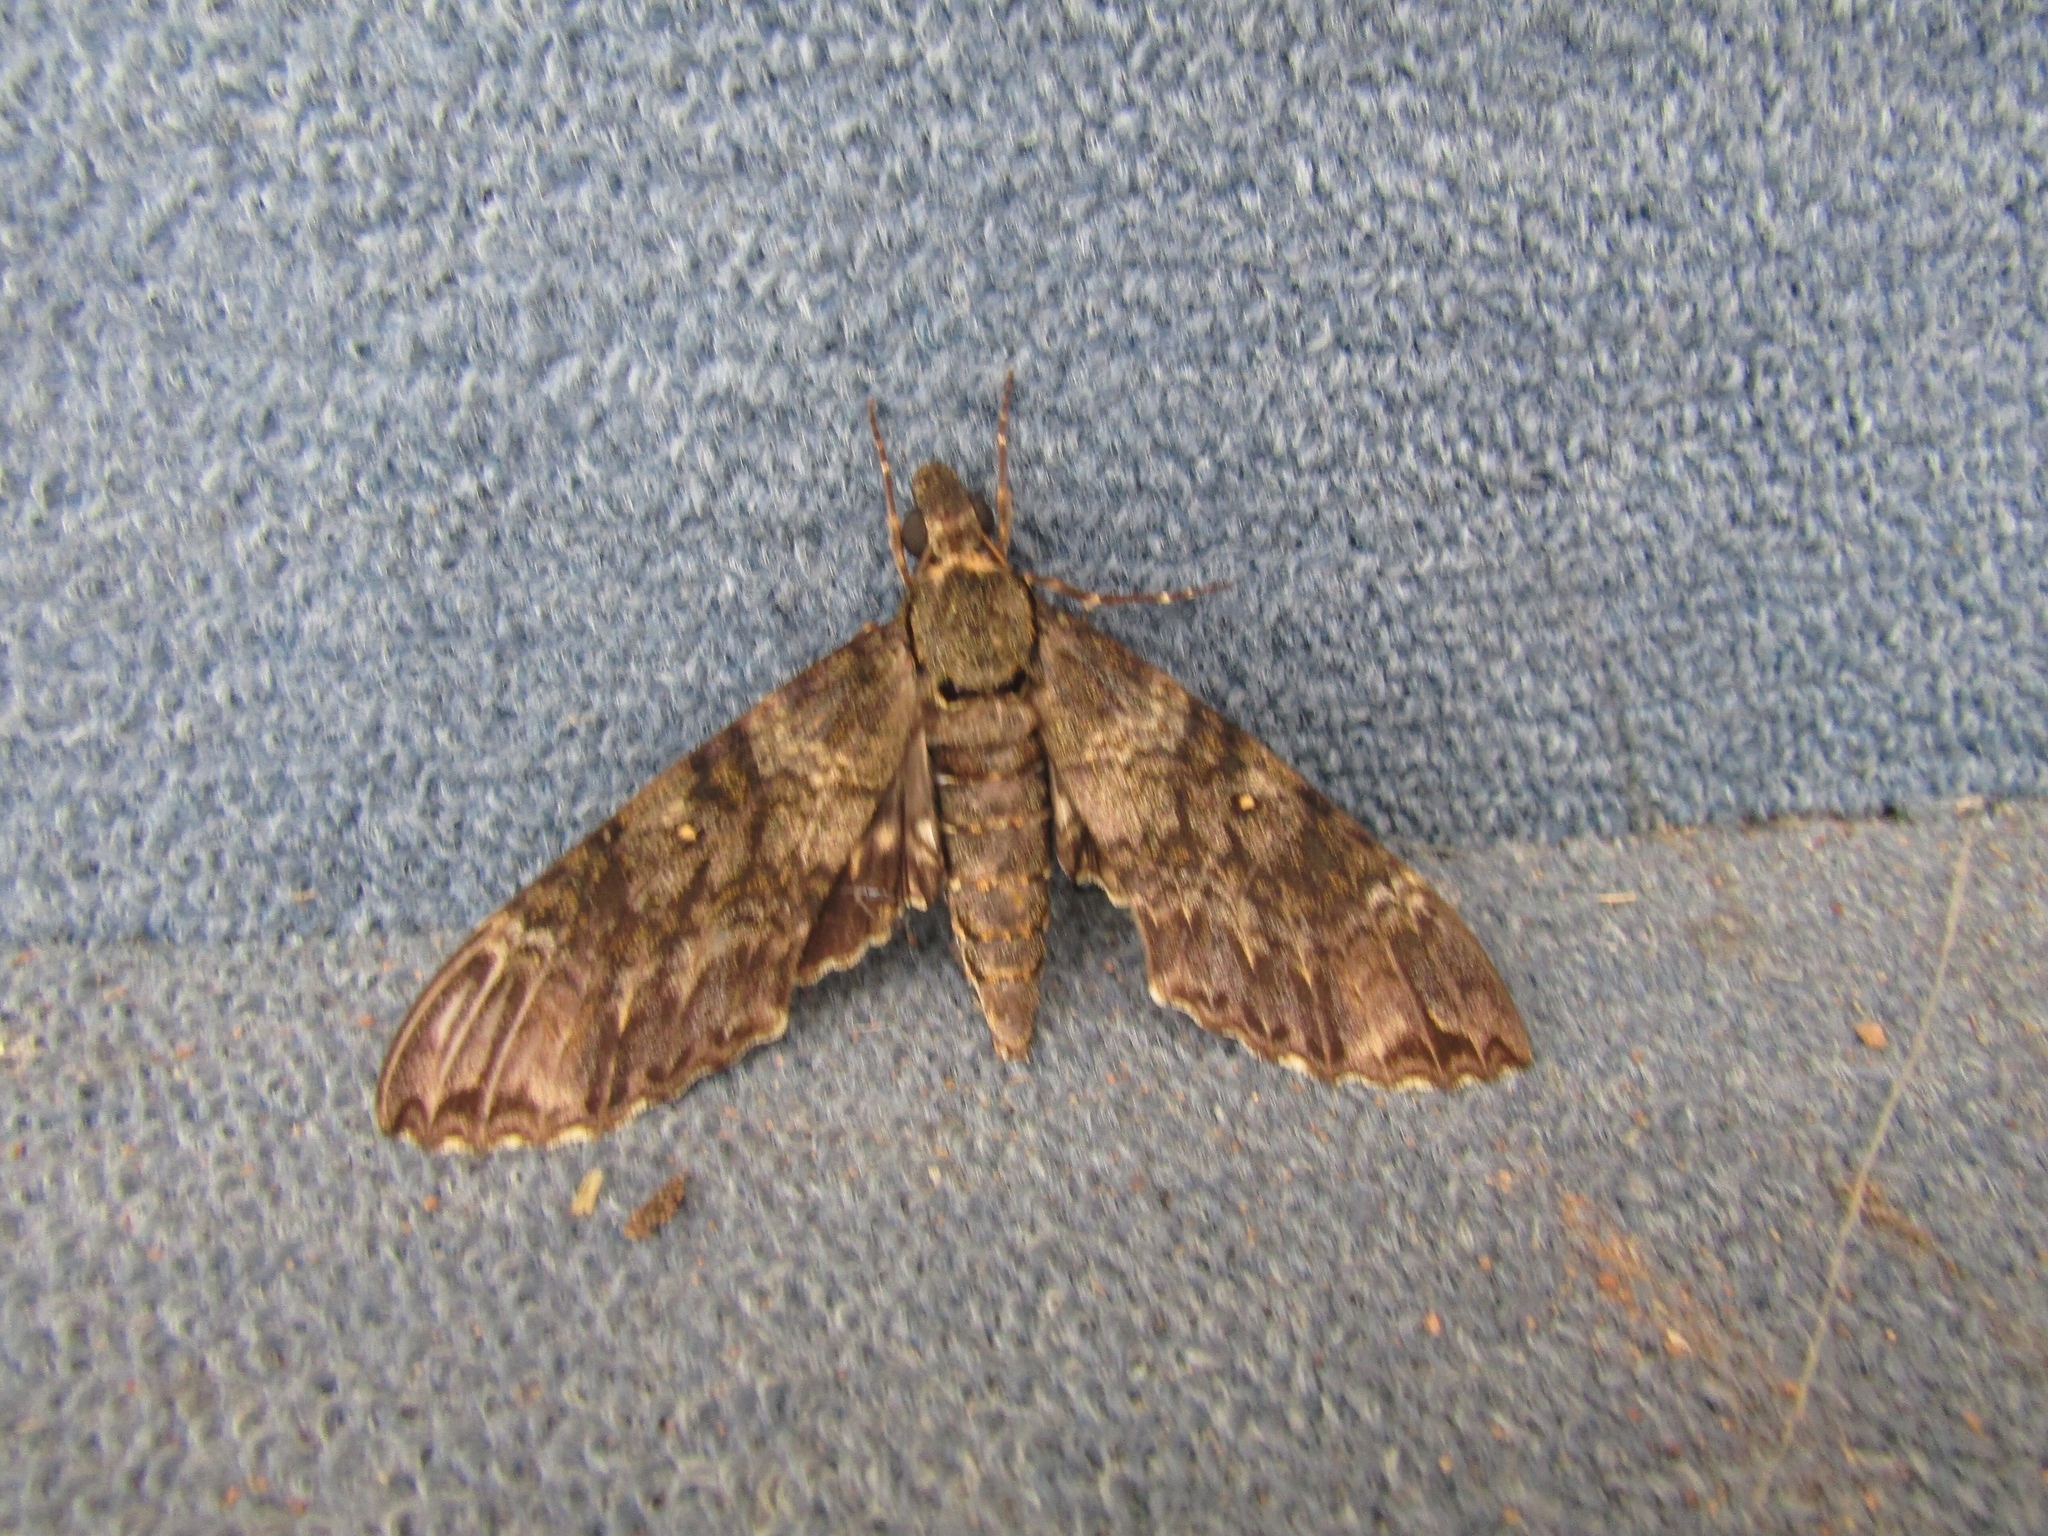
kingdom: Animalia
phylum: Arthropoda
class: Insecta
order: Lepidoptera
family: Sphingidae
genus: Meganoton
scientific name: Meganoton nyctiphanes
